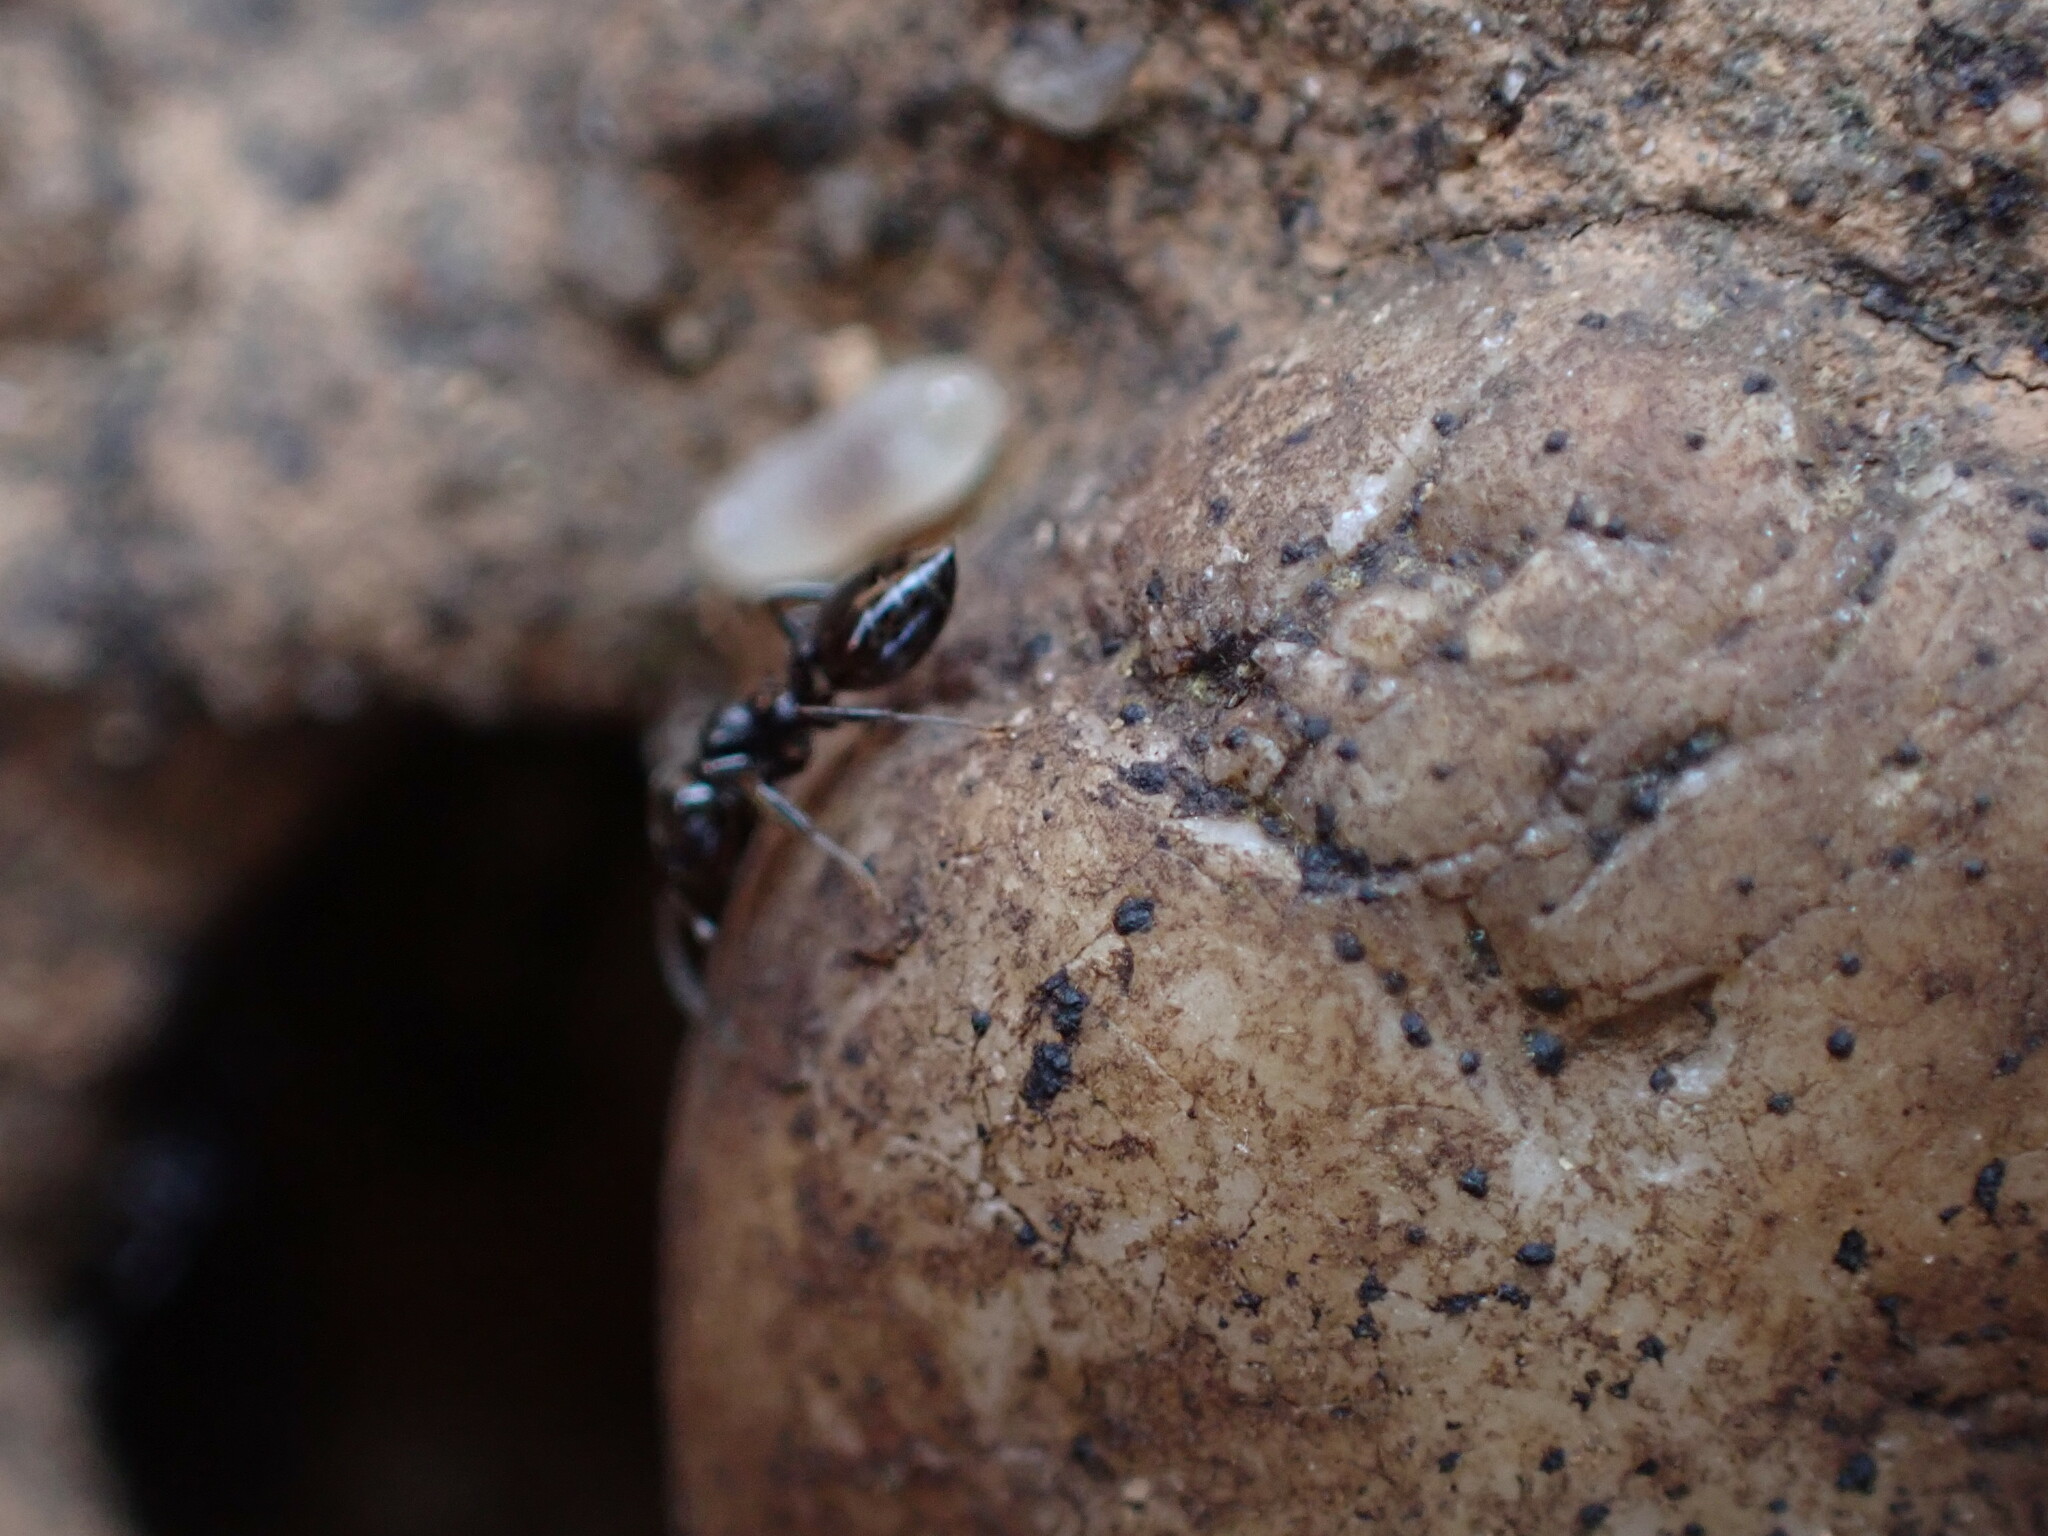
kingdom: Animalia
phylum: Arthropoda
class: Insecta
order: Hymenoptera
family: Formicidae
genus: Crematogaster
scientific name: Crematogaster auberti
